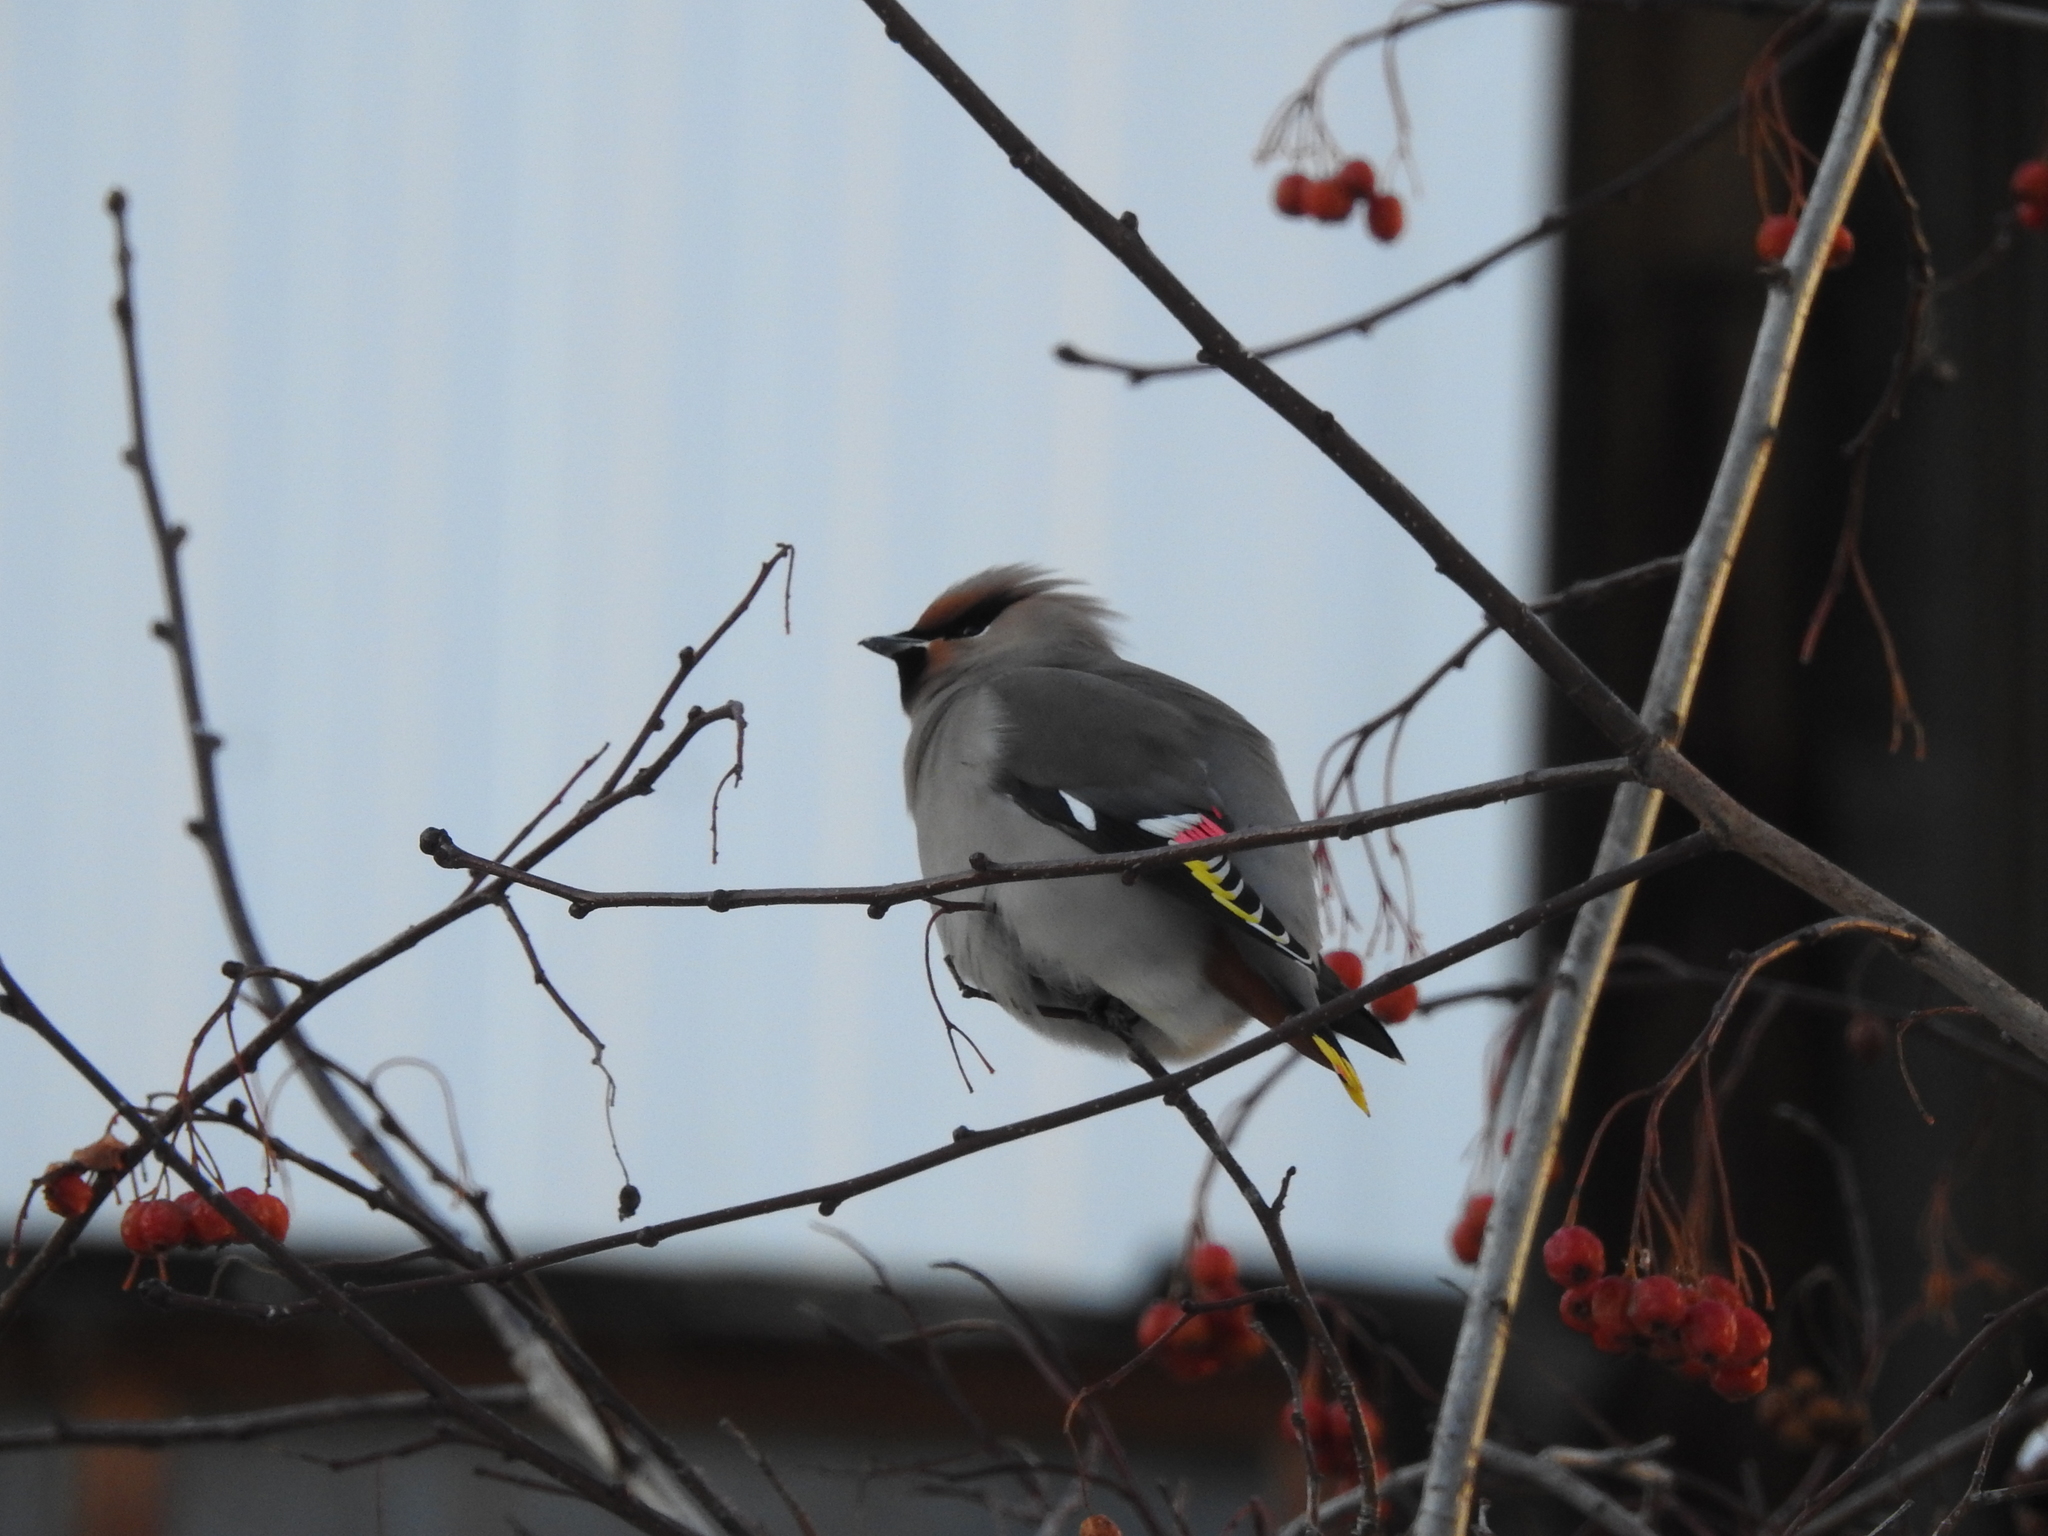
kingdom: Animalia
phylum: Chordata
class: Aves
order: Passeriformes
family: Bombycillidae
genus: Bombycilla
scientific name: Bombycilla garrulus
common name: Bohemian waxwing
